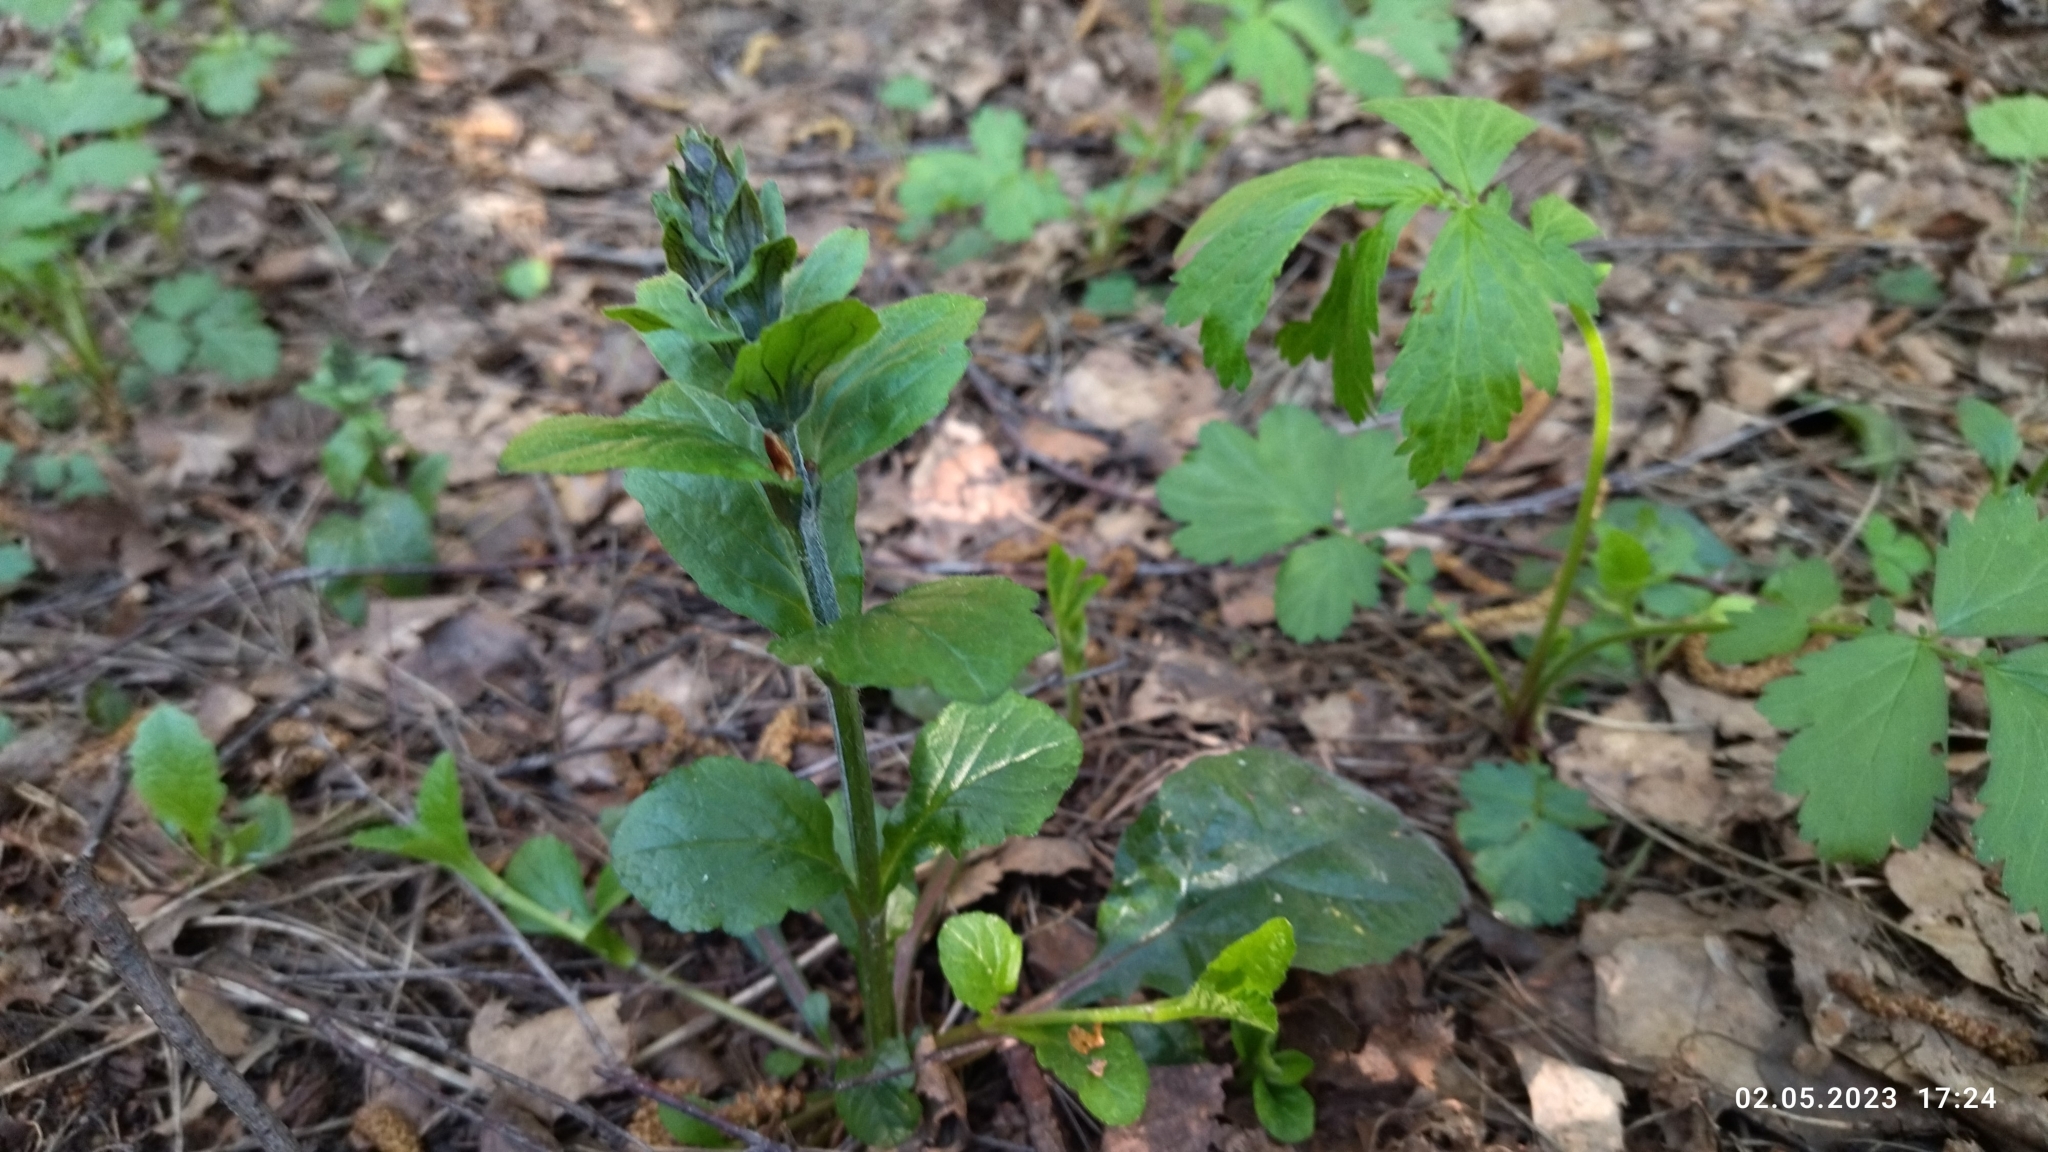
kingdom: Plantae
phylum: Tracheophyta
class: Magnoliopsida
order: Lamiales
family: Lamiaceae
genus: Ajuga
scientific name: Ajuga reptans
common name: Bugle
